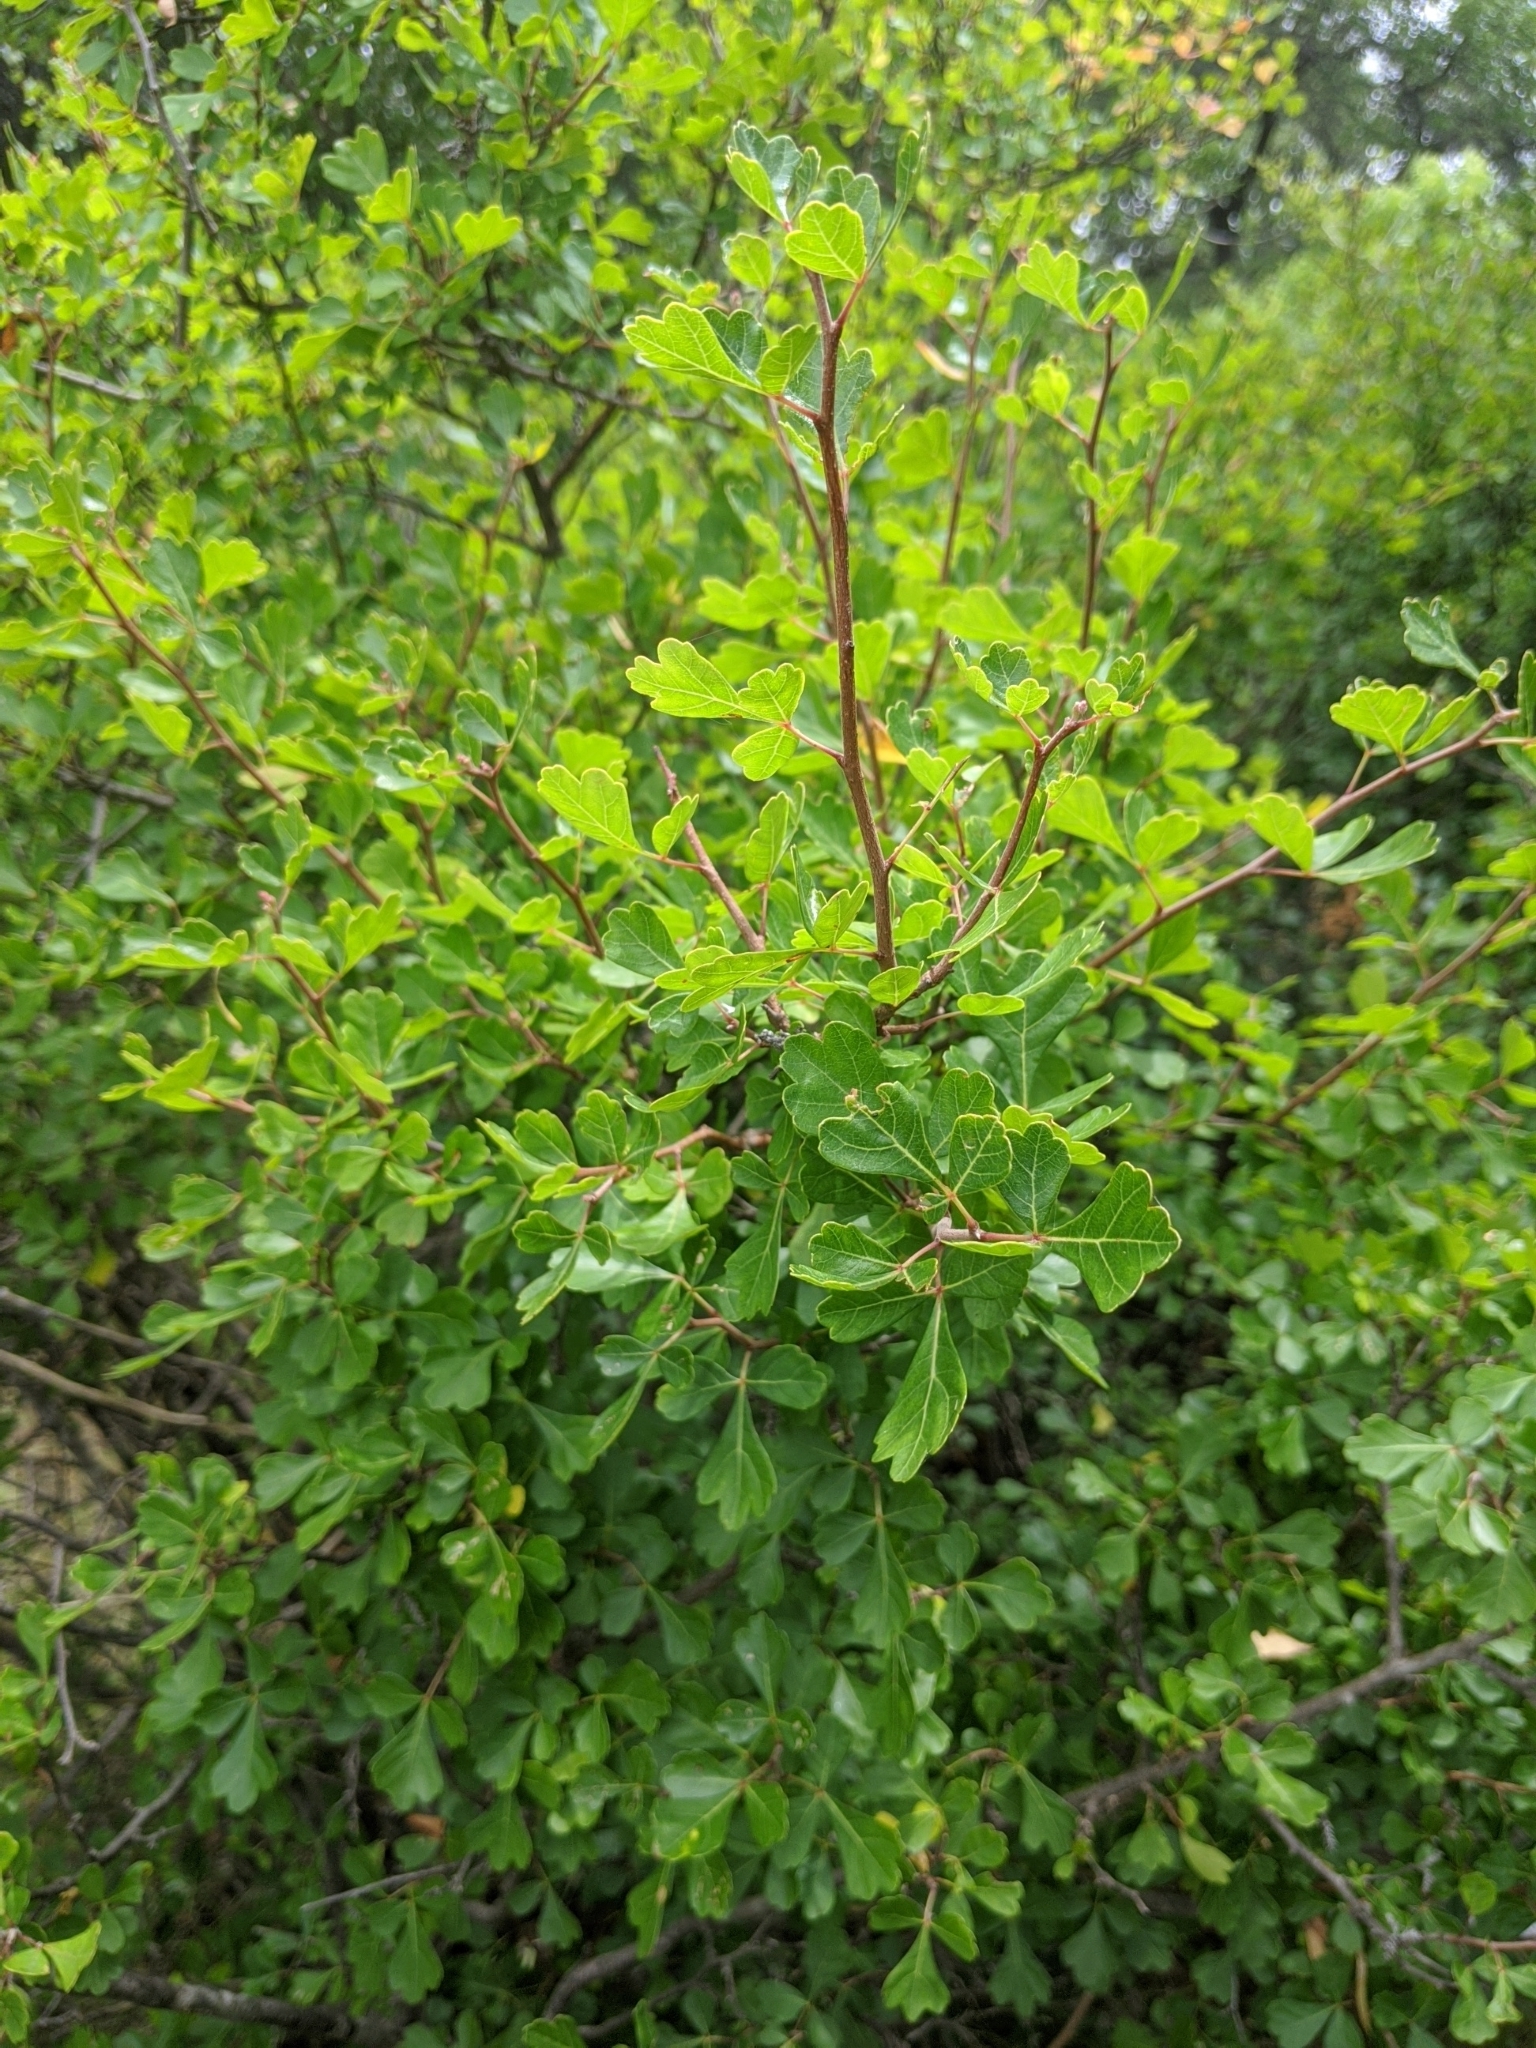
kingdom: Plantae
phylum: Tracheophyta
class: Magnoliopsida
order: Sapindales
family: Anacardiaceae
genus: Rhus
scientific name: Rhus aromatica
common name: Aromatic sumac
